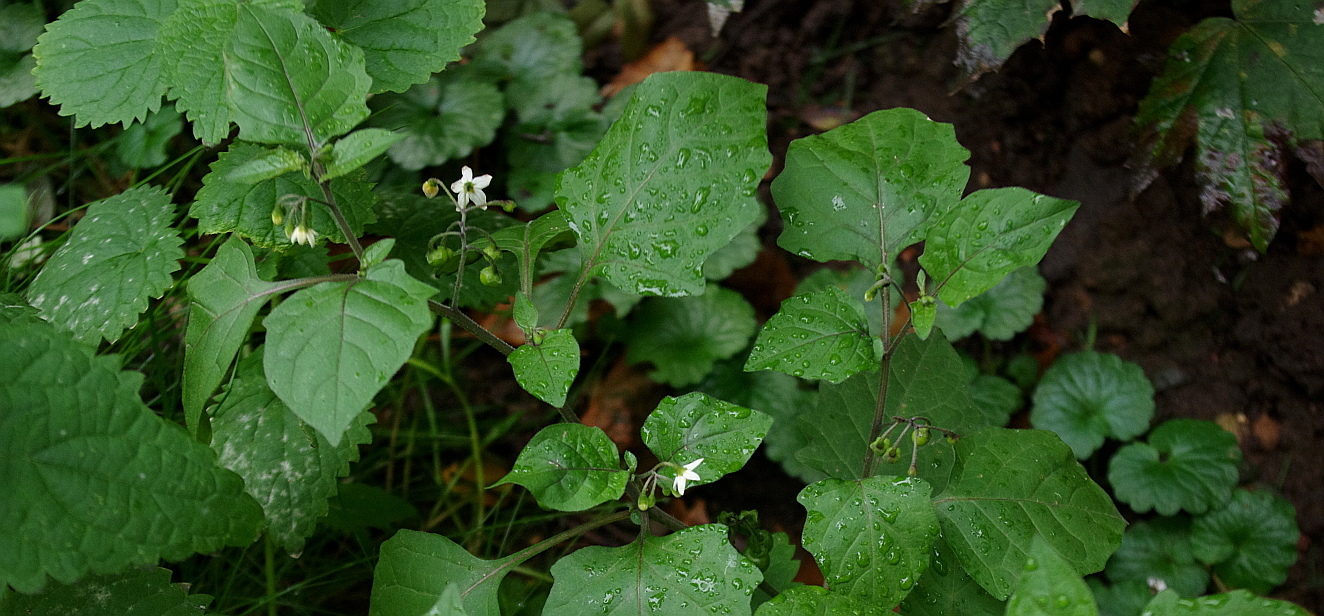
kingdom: Plantae
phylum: Tracheophyta
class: Magnoliopsida
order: Solanales
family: Solanaceae
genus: Solanum
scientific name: Solanum nigrum
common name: Black nightshade
